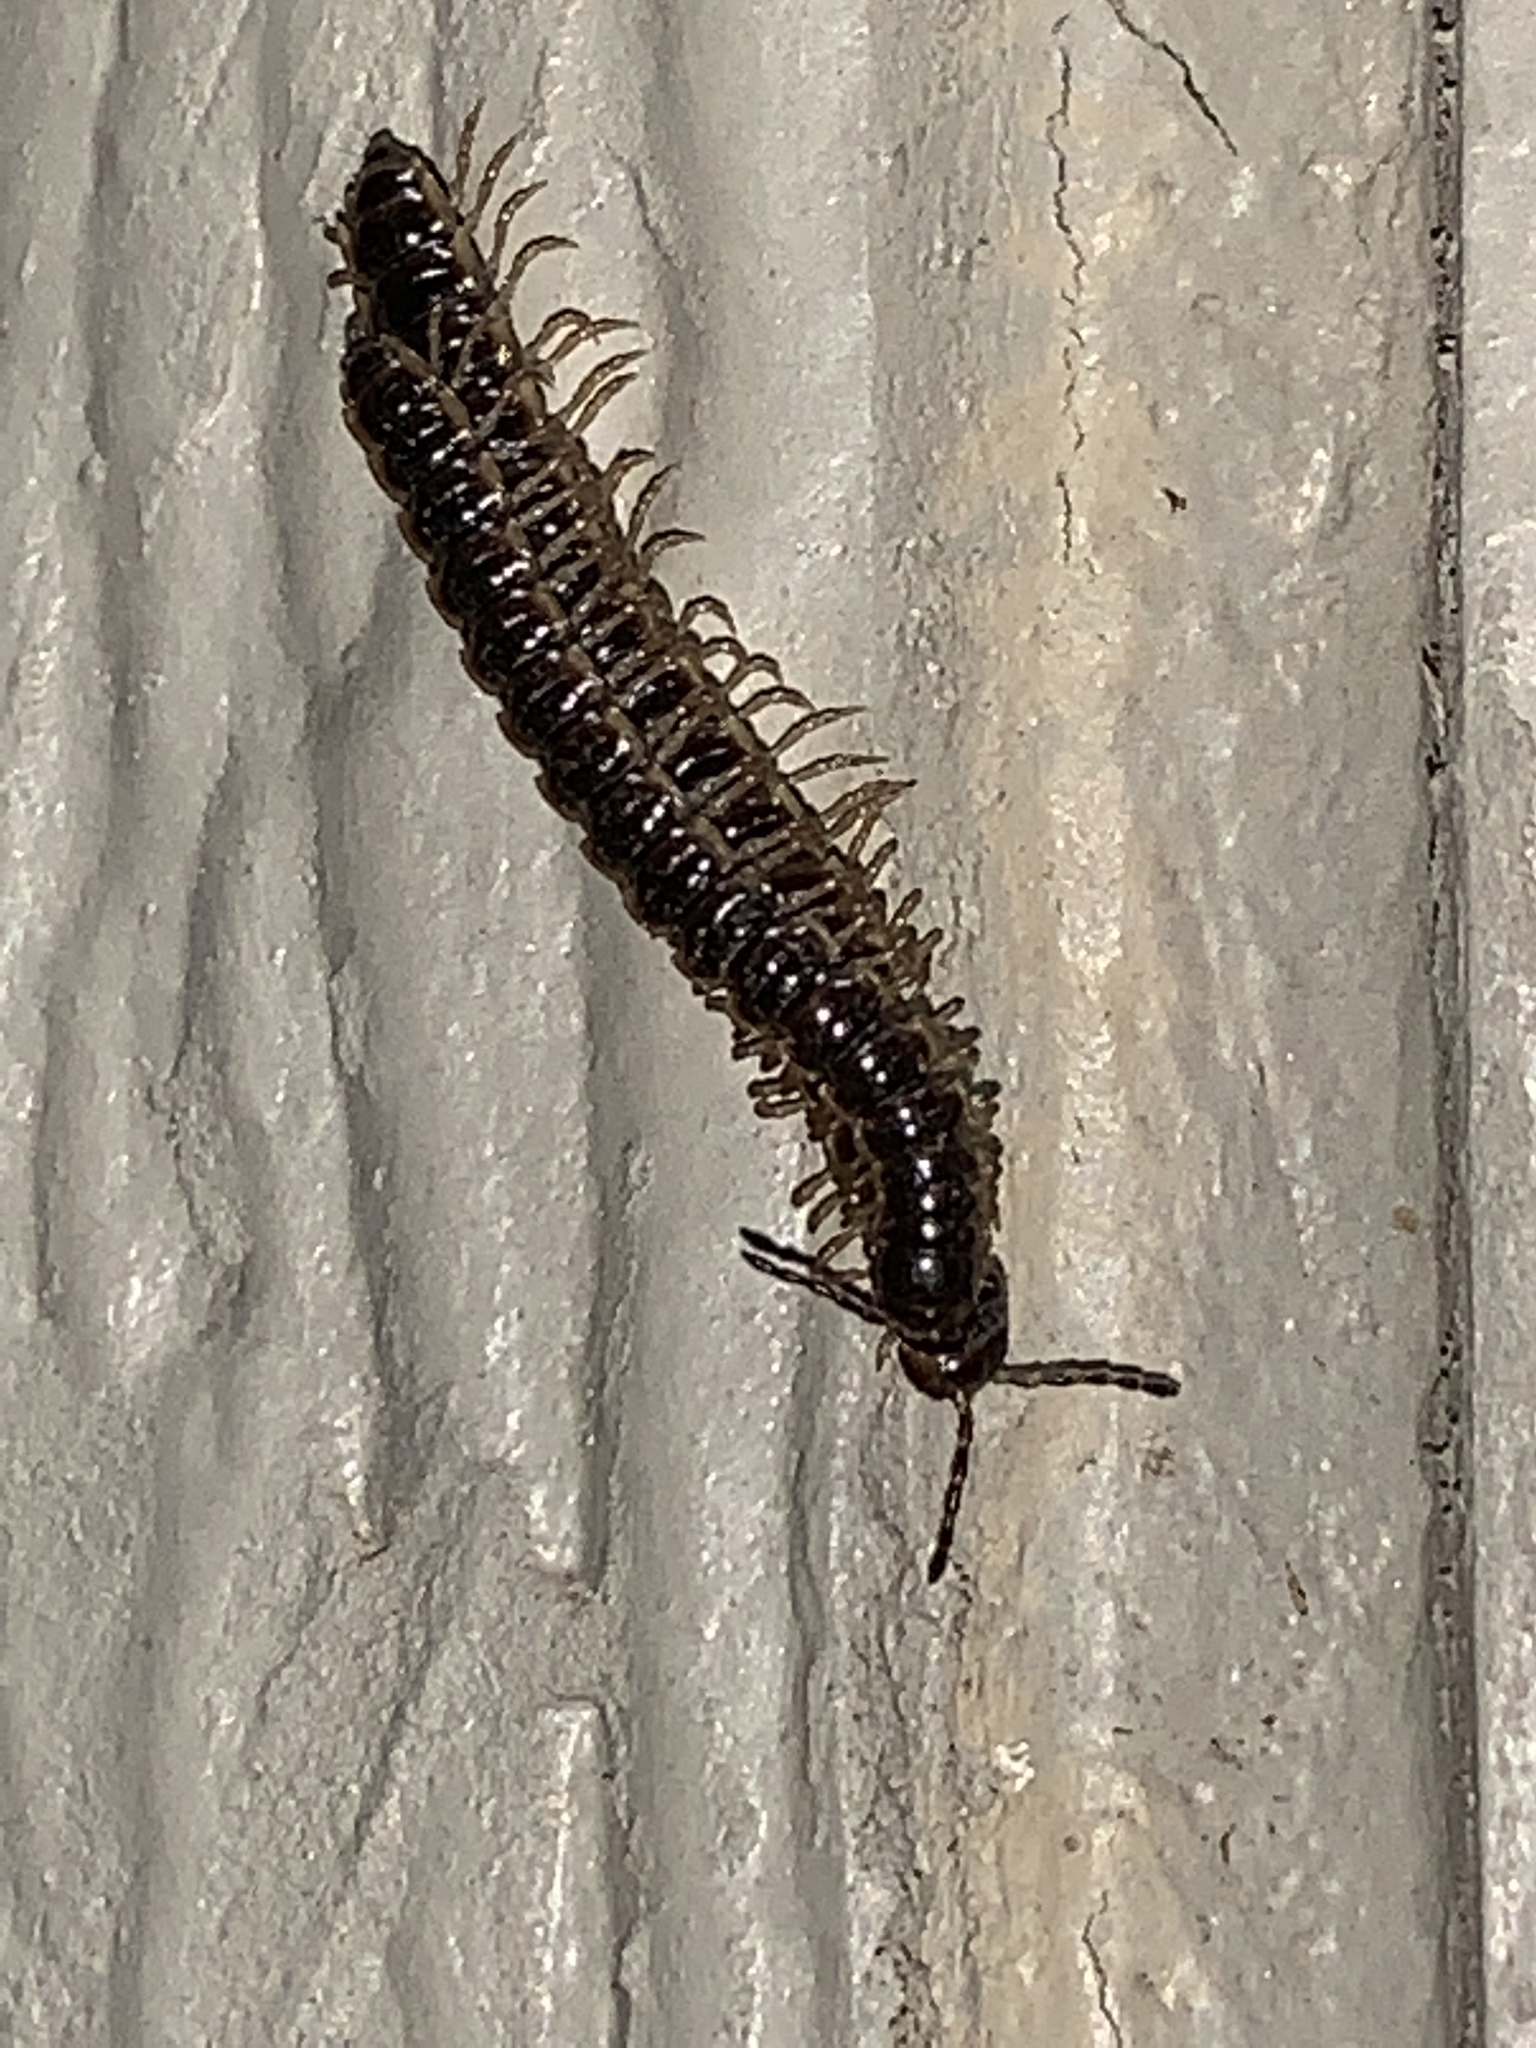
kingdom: Animalia
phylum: Arthropoda
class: Diplopoda
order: Polydesmida
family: Paradoxosomatidae
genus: Oxidus
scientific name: Oxidus gracilis
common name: Greenhouse millipede
